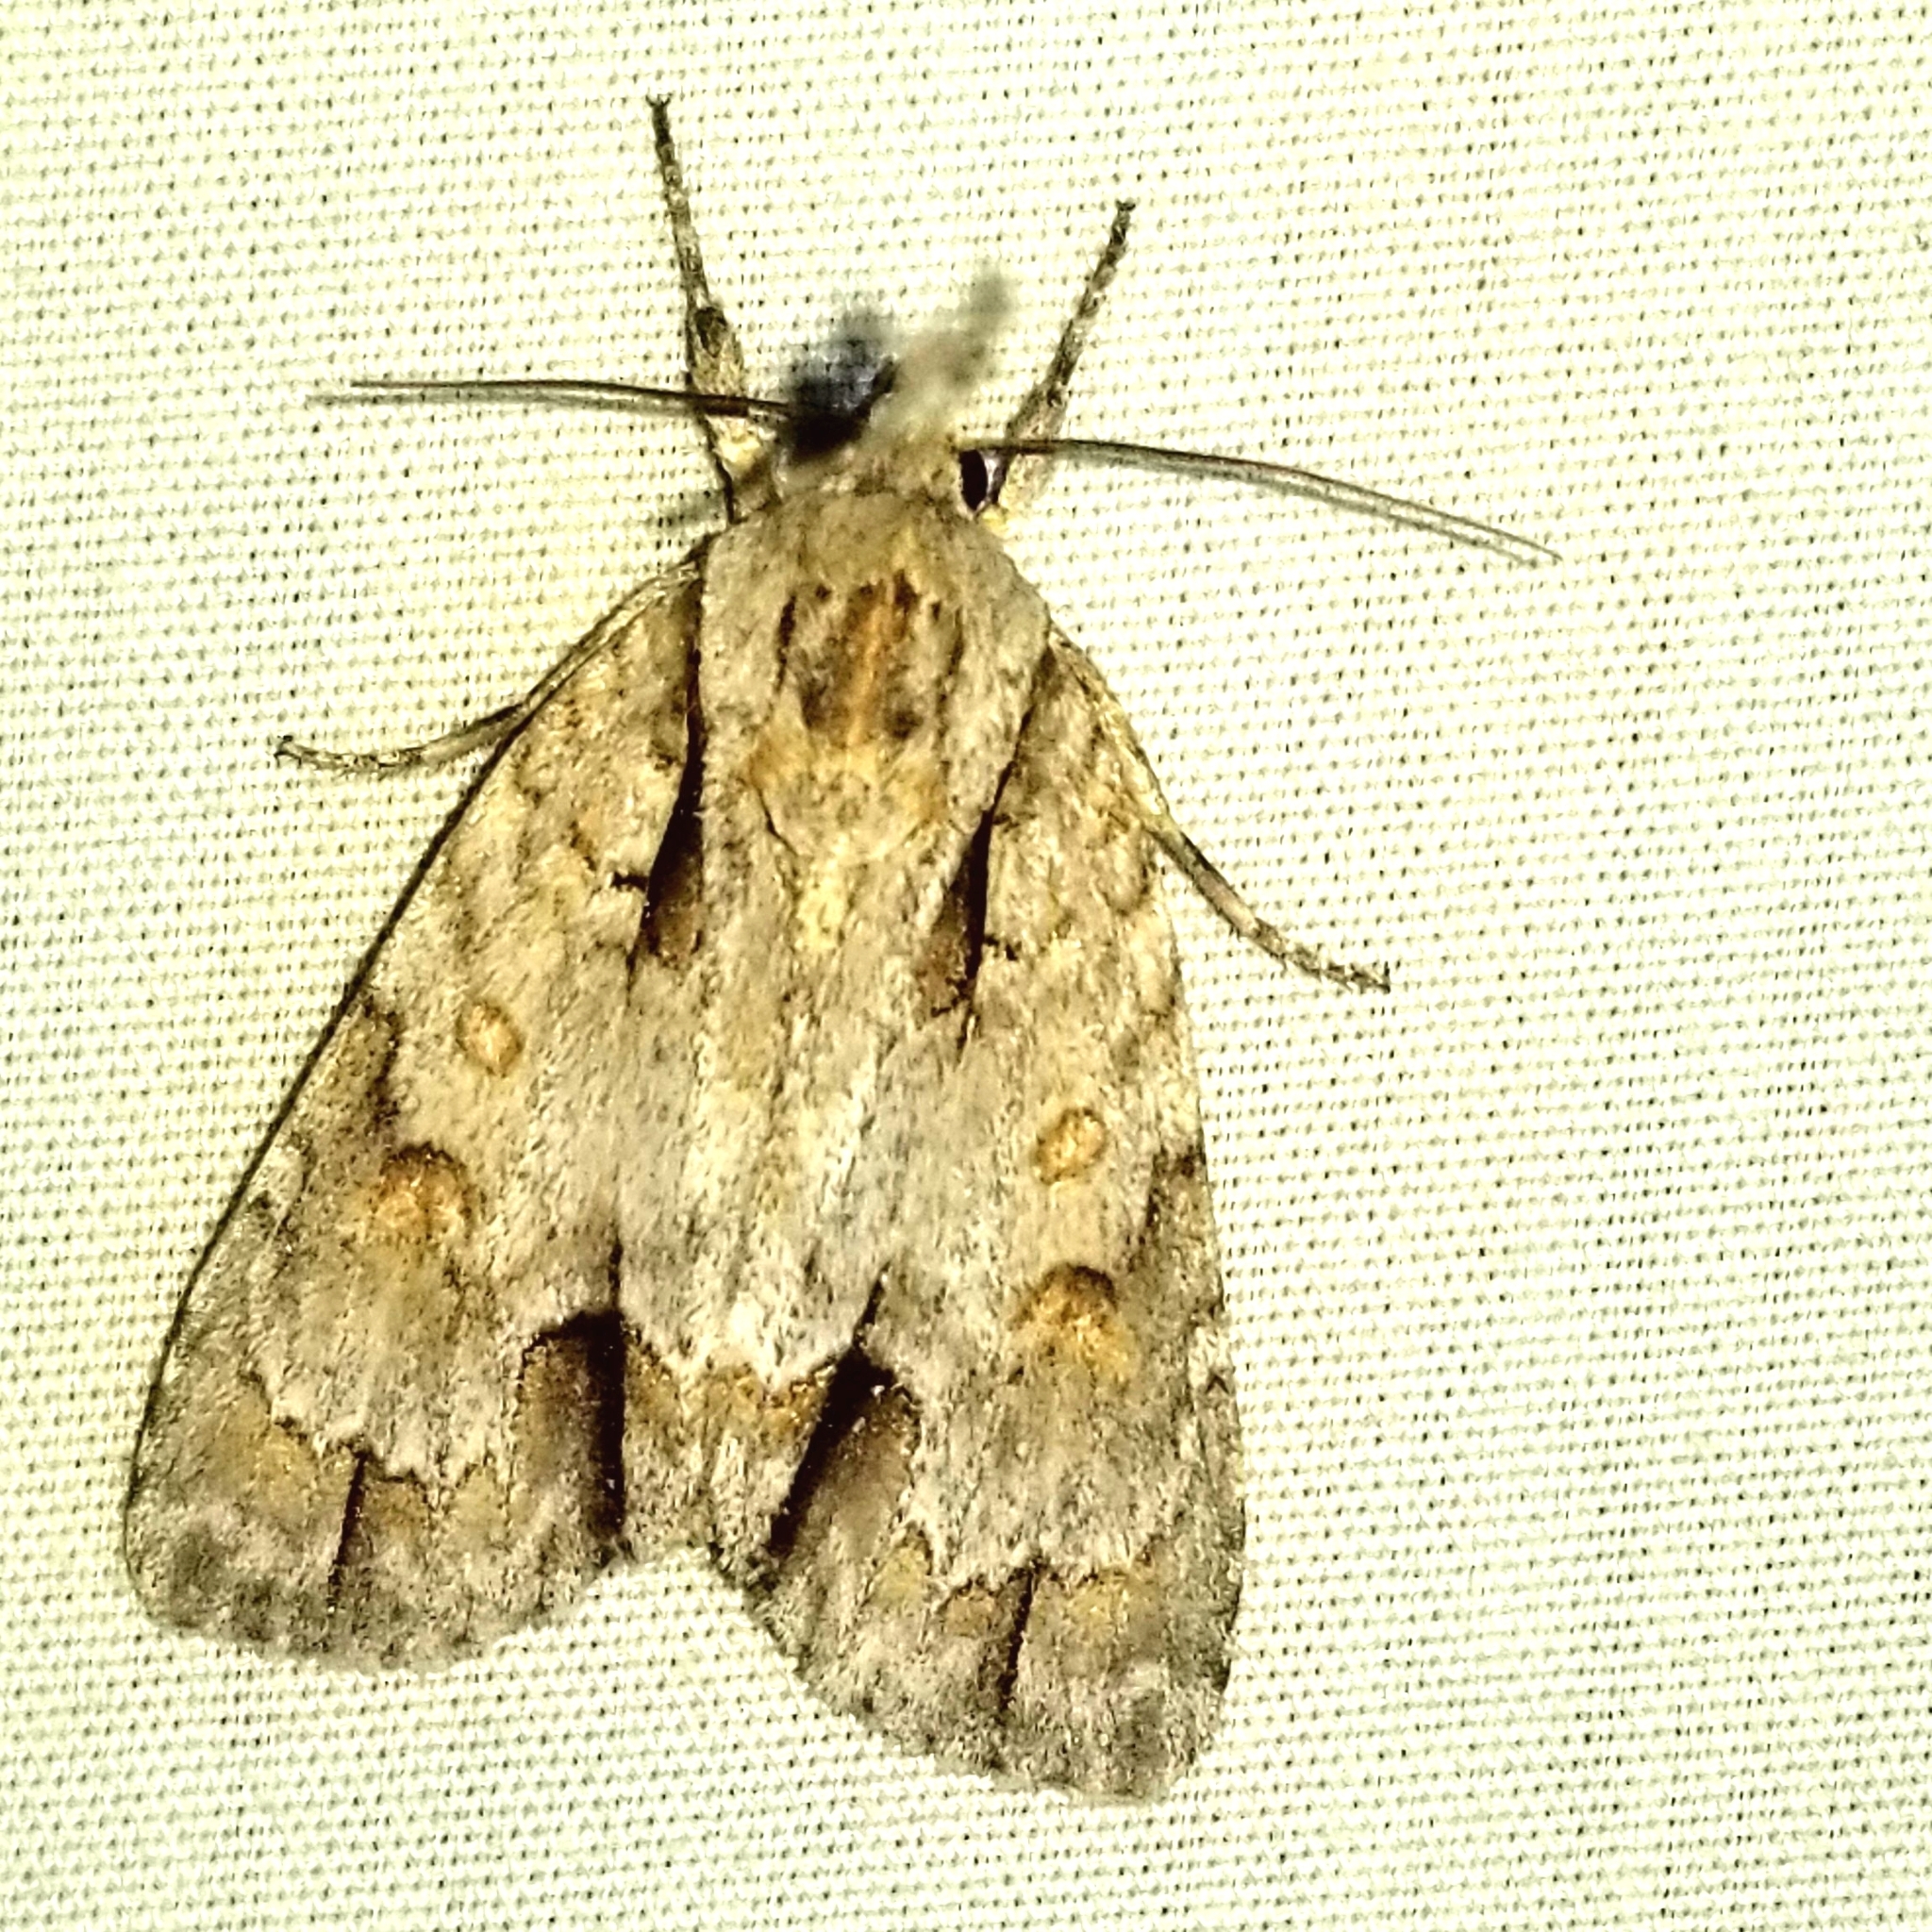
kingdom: Animalia
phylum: Arthropoda
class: Insecta
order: Lepidoptera
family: Noctuidae
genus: Acronicta
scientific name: Acronicta morula
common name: Ochre dagger
